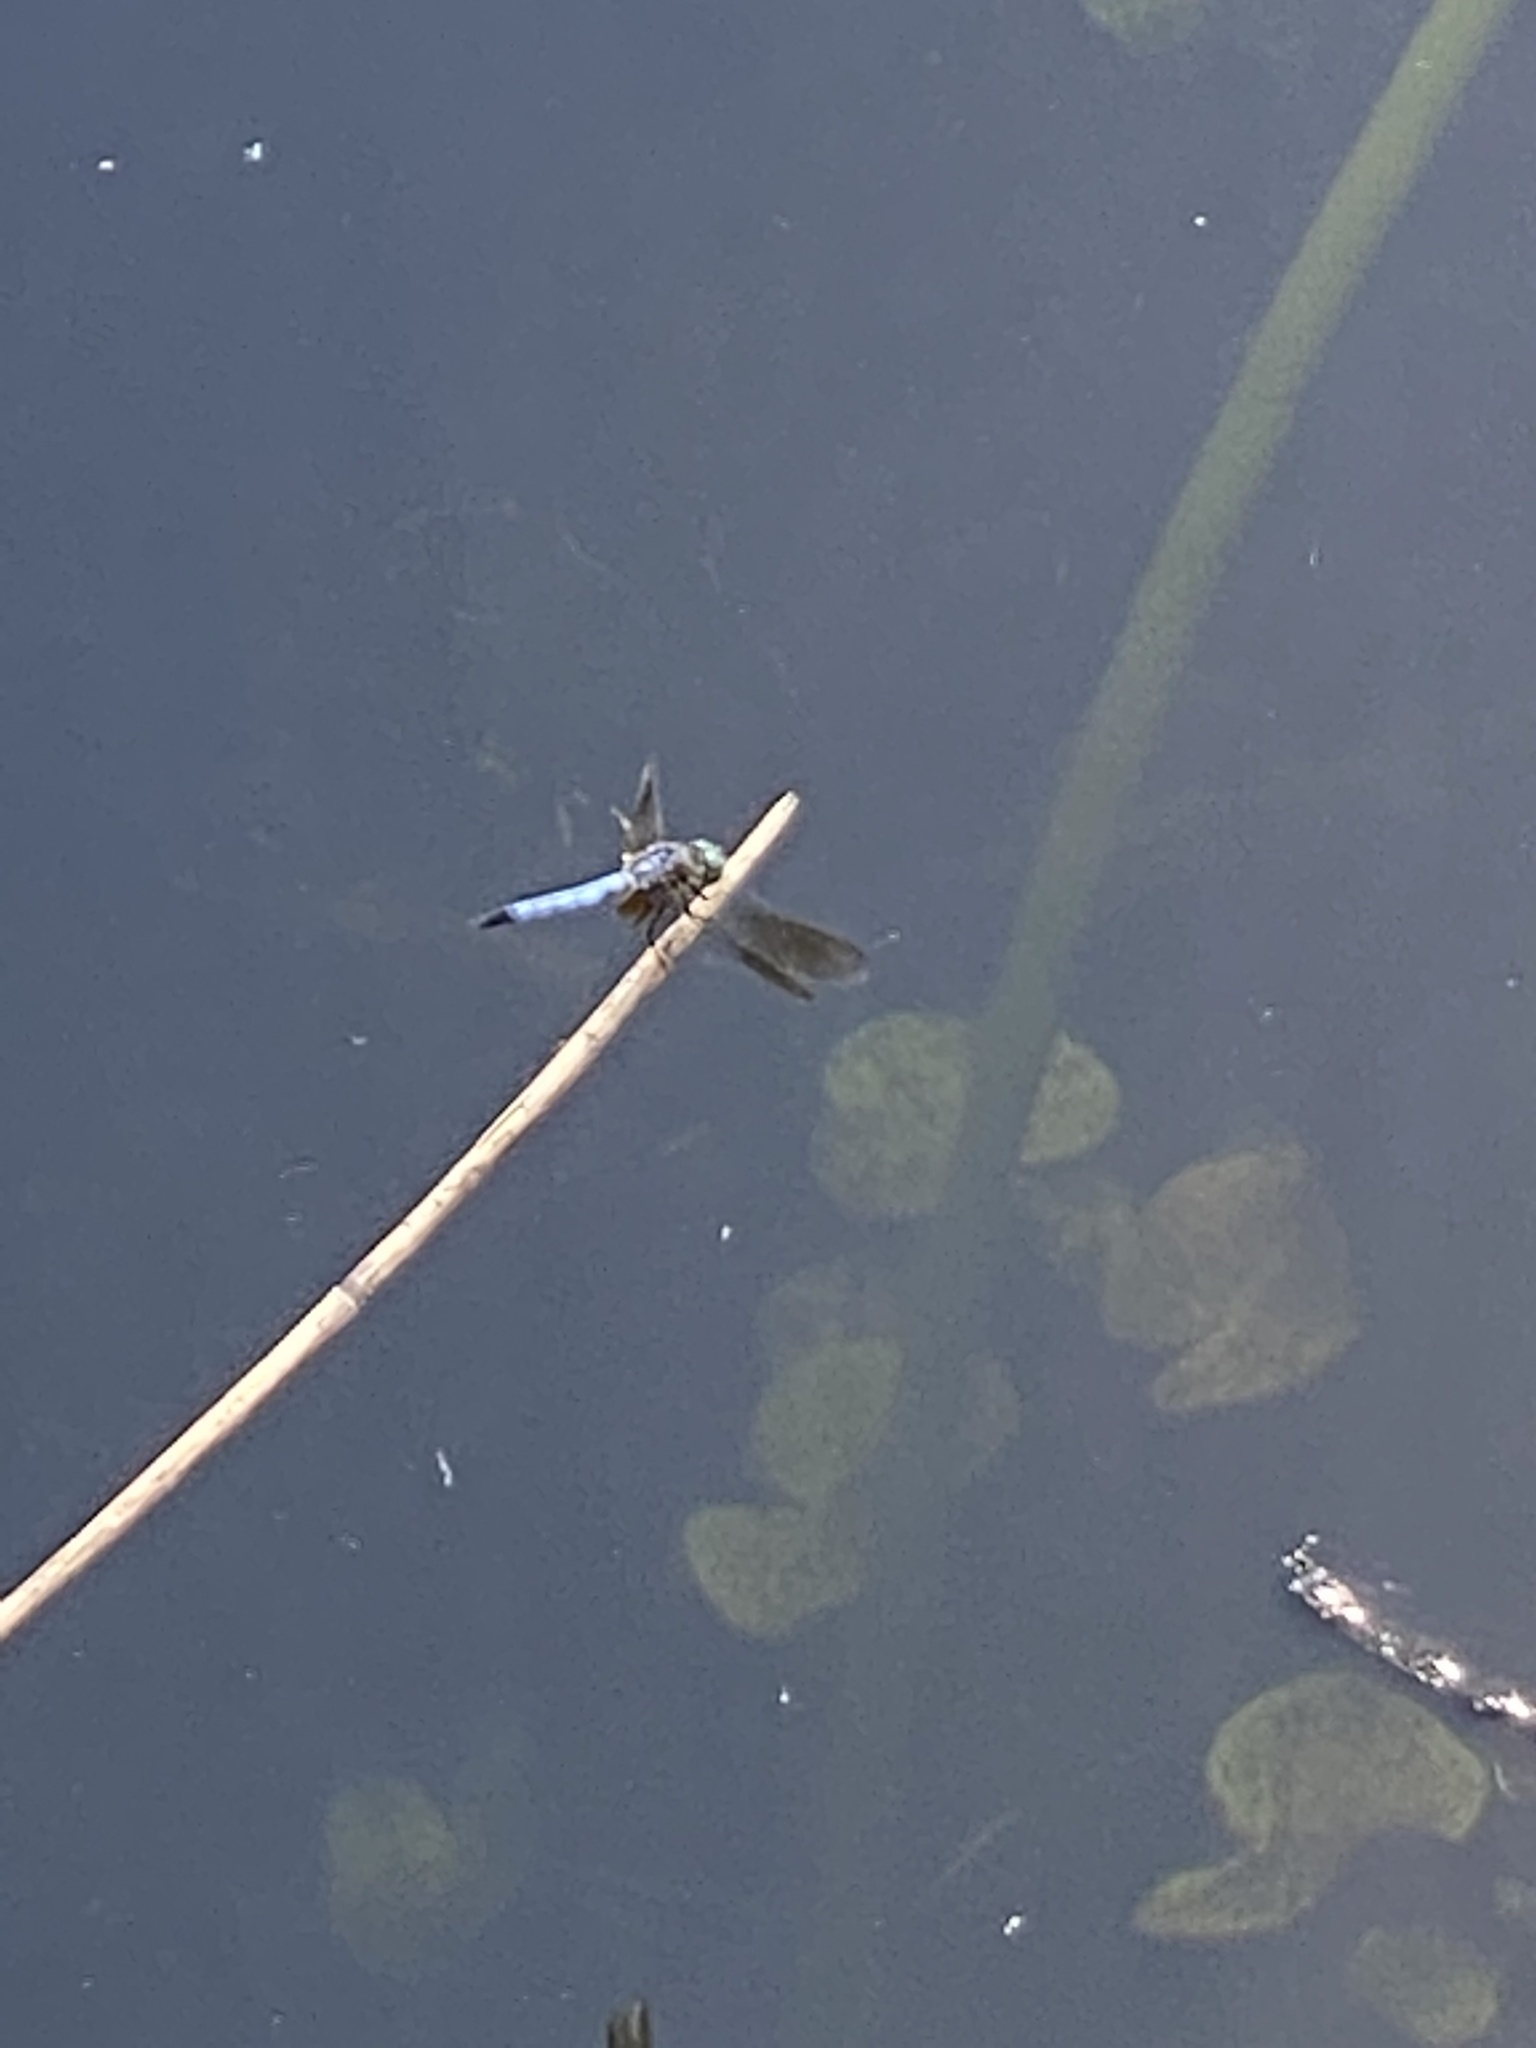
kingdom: Animalia
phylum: Arthropoda
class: Insecta
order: Odonata
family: Libellulidae
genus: Pachydiplax
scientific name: Pachydiplax longipennis
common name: Blue dasher
